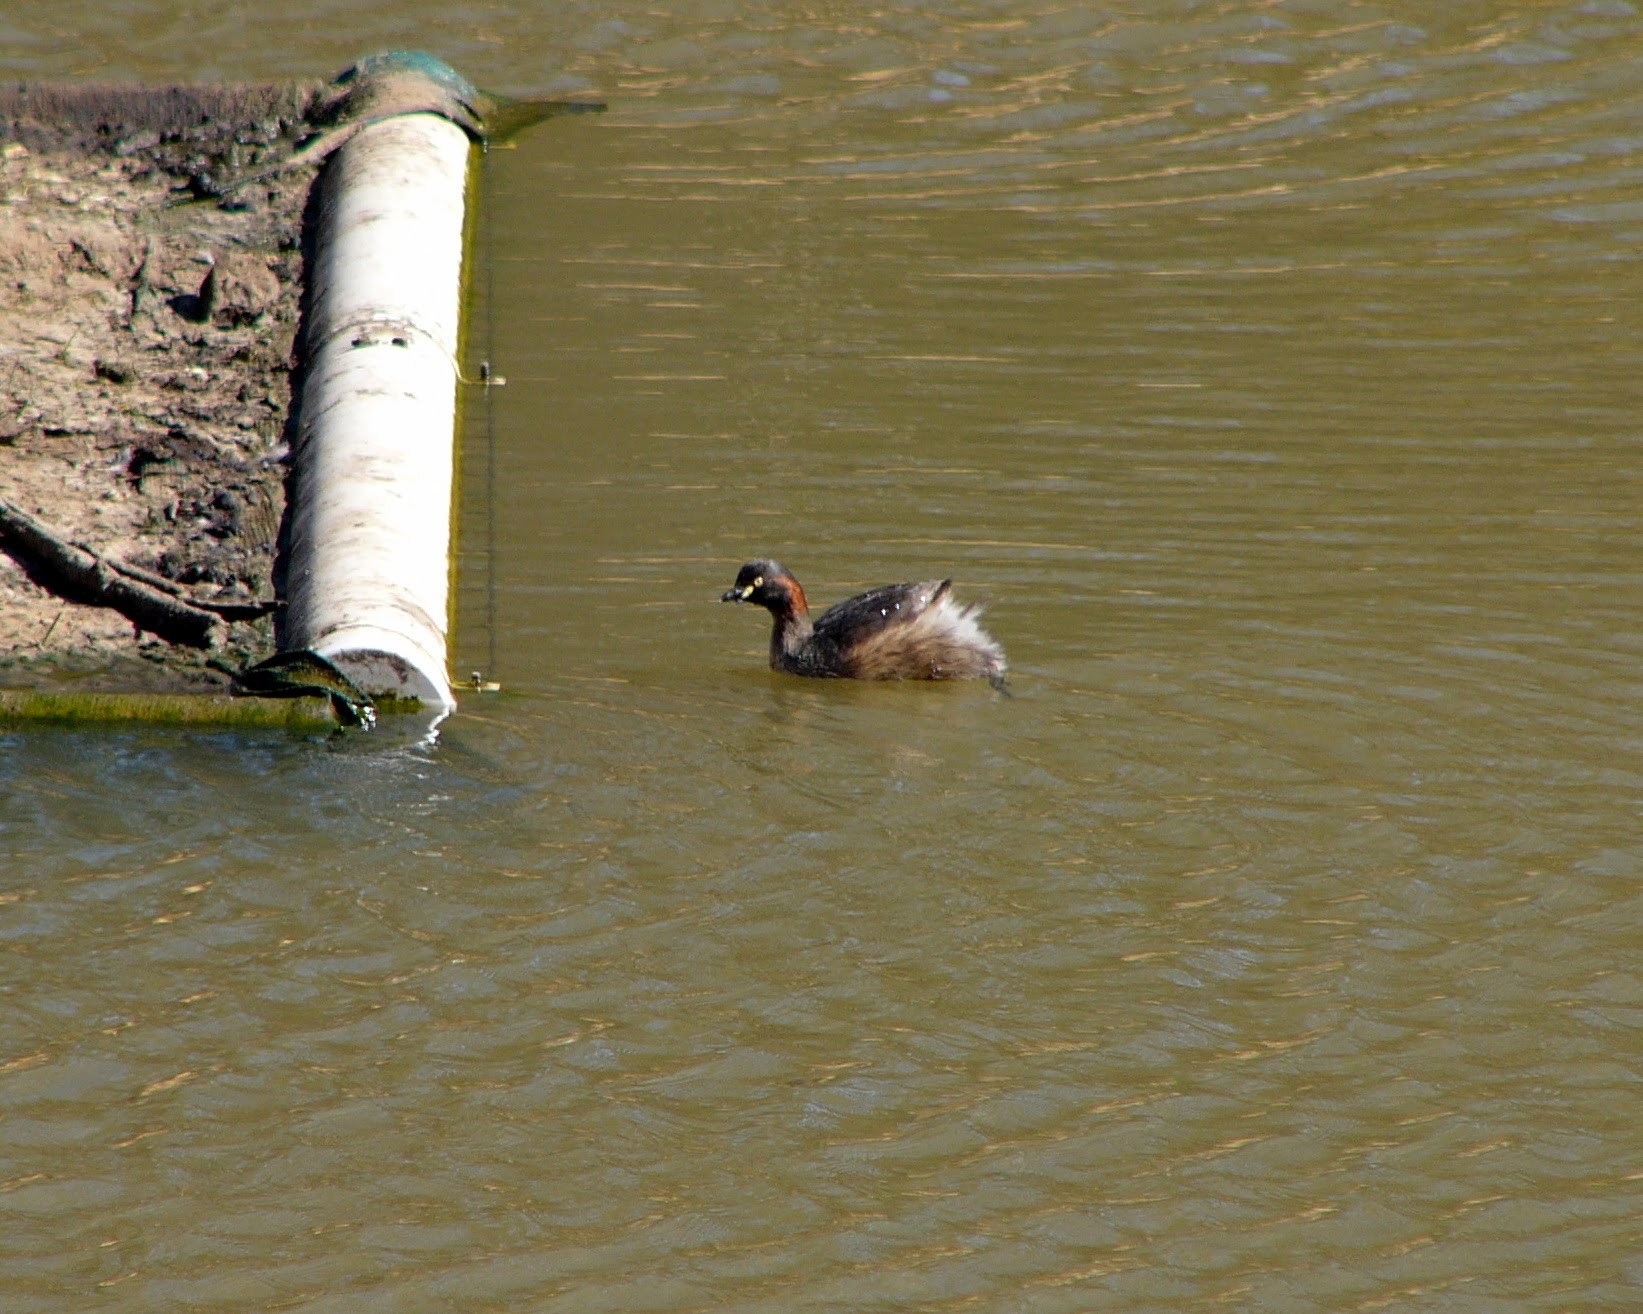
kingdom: Animalia
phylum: Chordata
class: Aves
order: Podicipediformes
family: Podicipedidae
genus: Tachybaptus
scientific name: Tachybaptus novaehollandiae
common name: Australasian grebe
